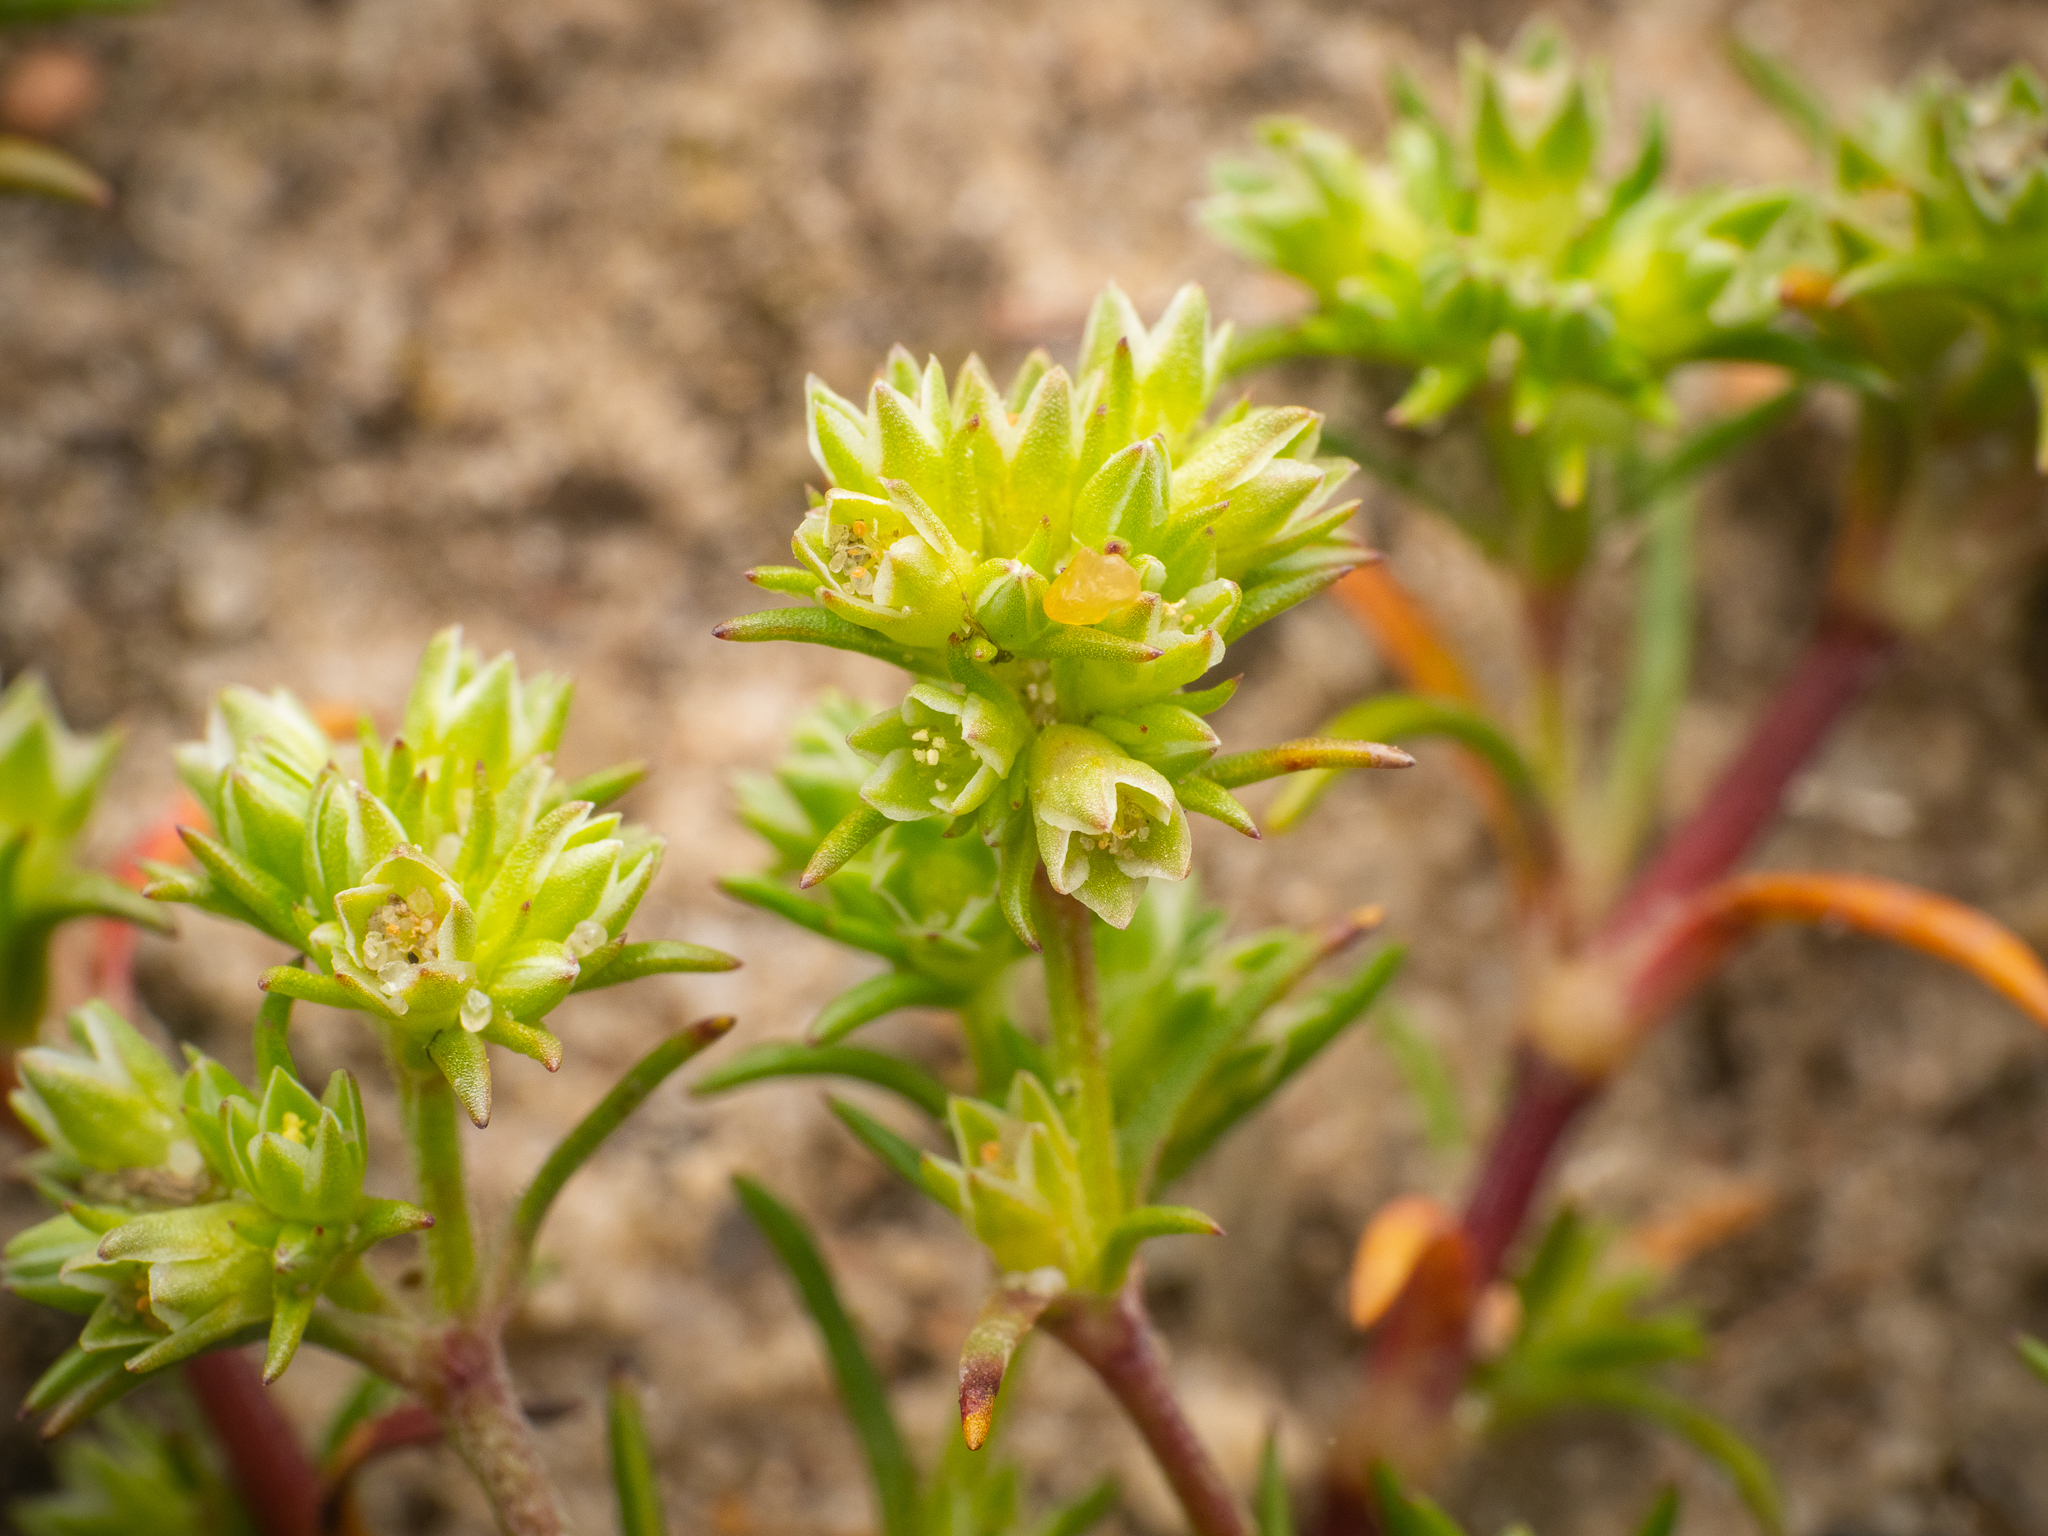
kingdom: Plantae
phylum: Tracheophyta
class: Magnoliopsida
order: Caryophyllales
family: Caryophyllaceae
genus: Scleranthus
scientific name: Scleranthus annuus
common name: Annual knawel
